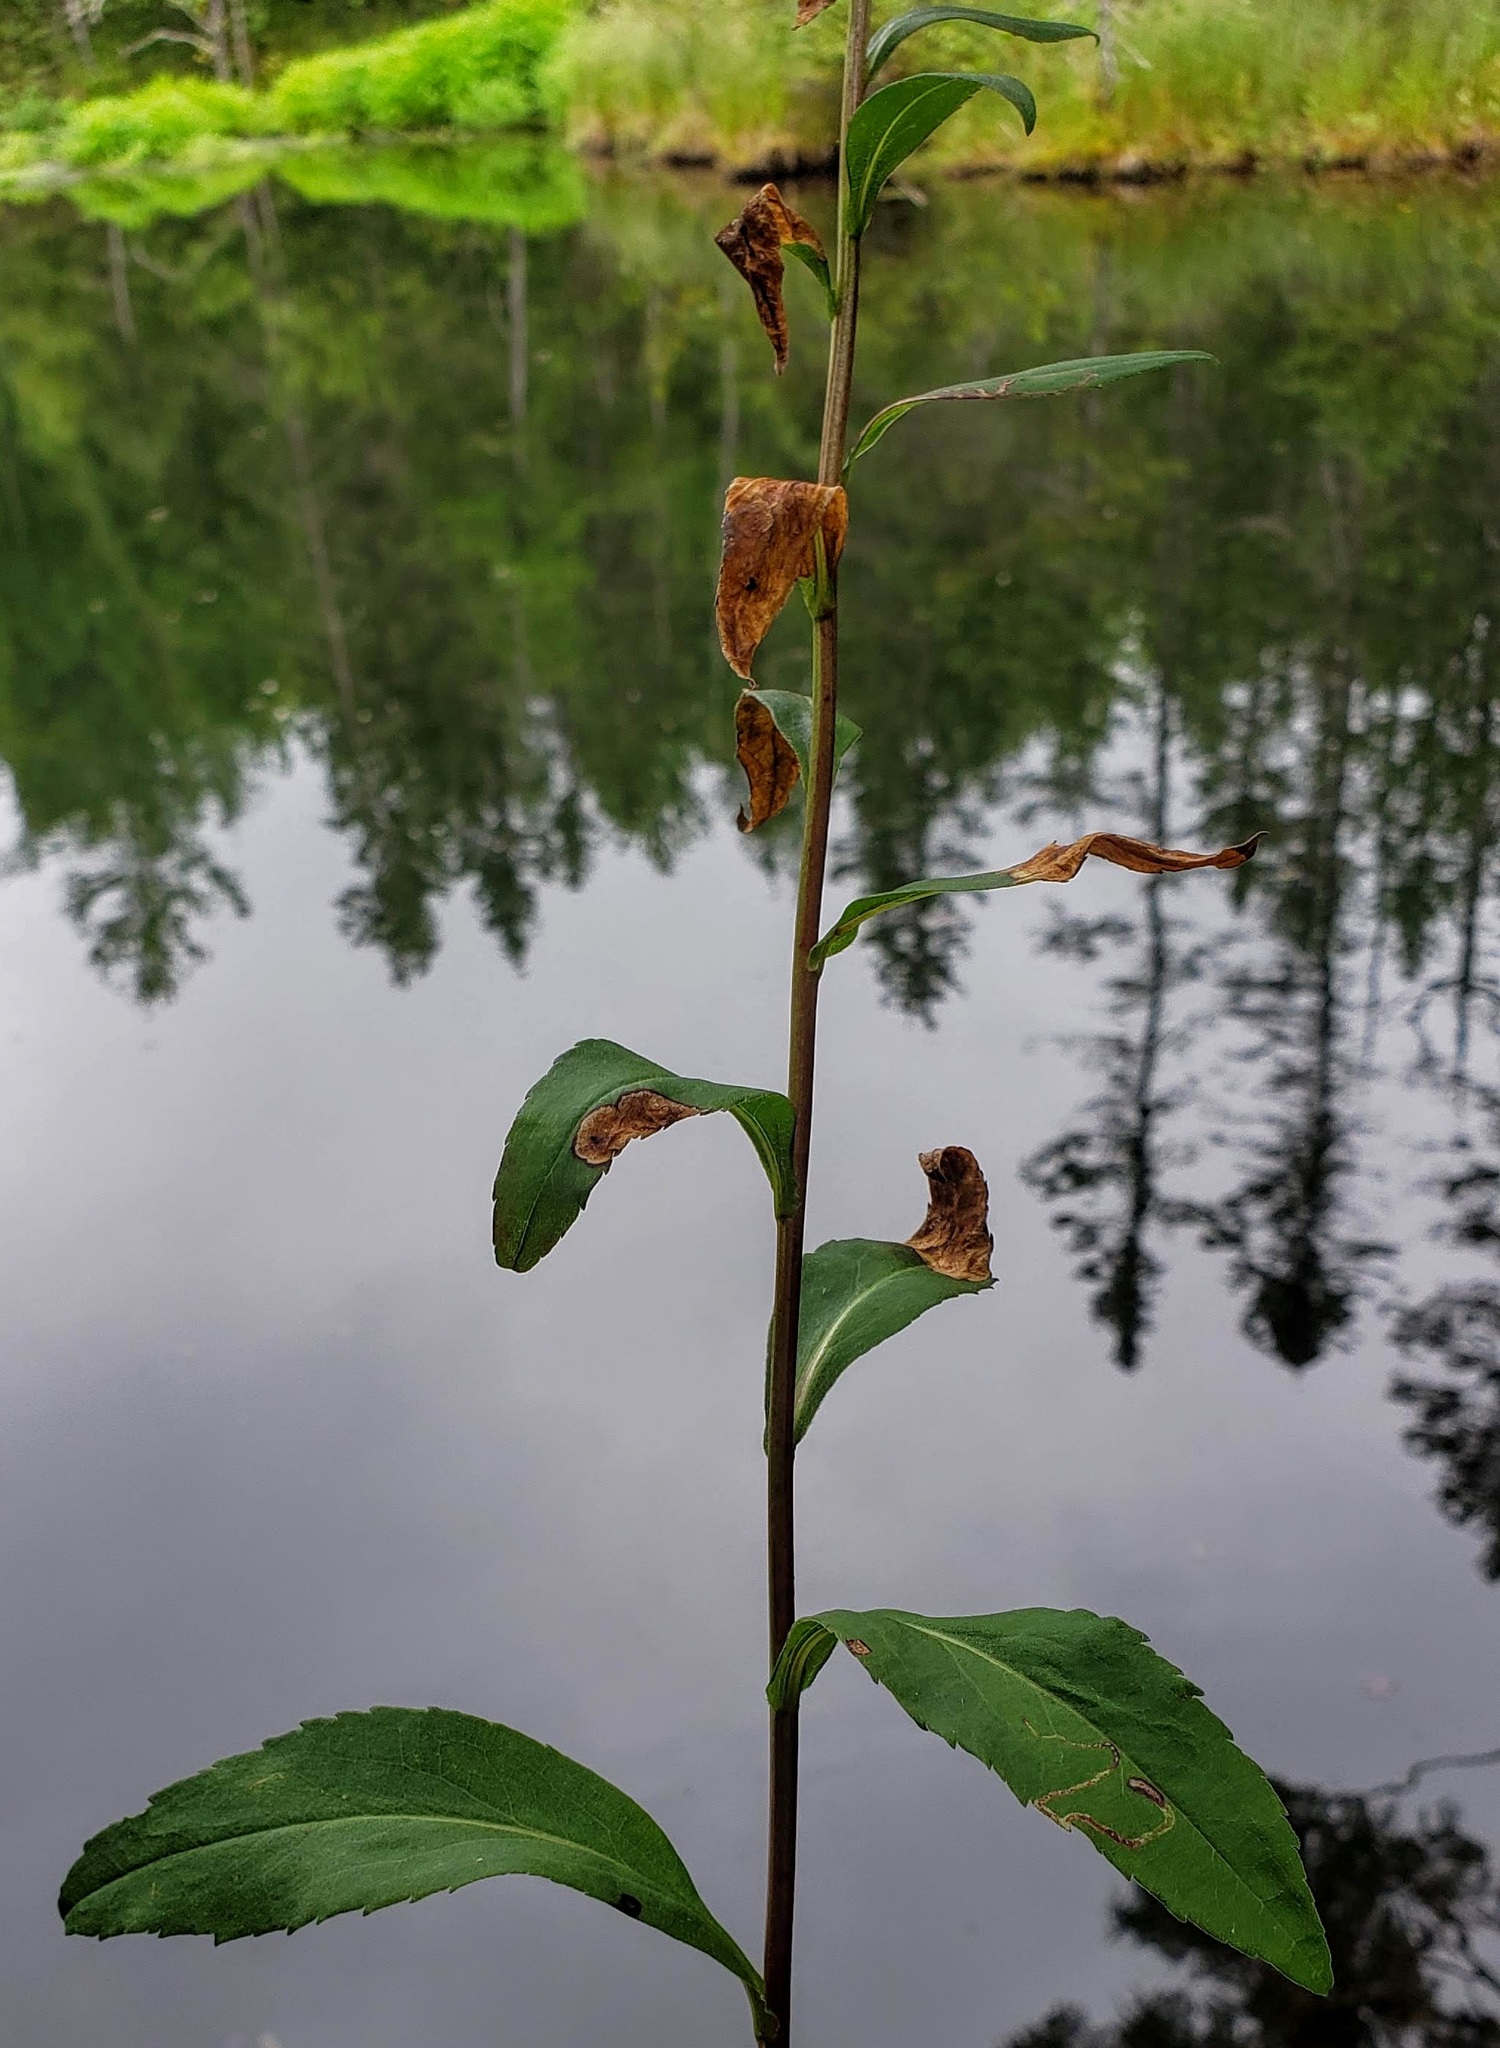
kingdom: Plantae
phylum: Tracheophyta
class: Magnoliopsida
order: Asterales
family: Asteraceae
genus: Solidago
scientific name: Solidago patula
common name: Rough-leaf goldenrod
